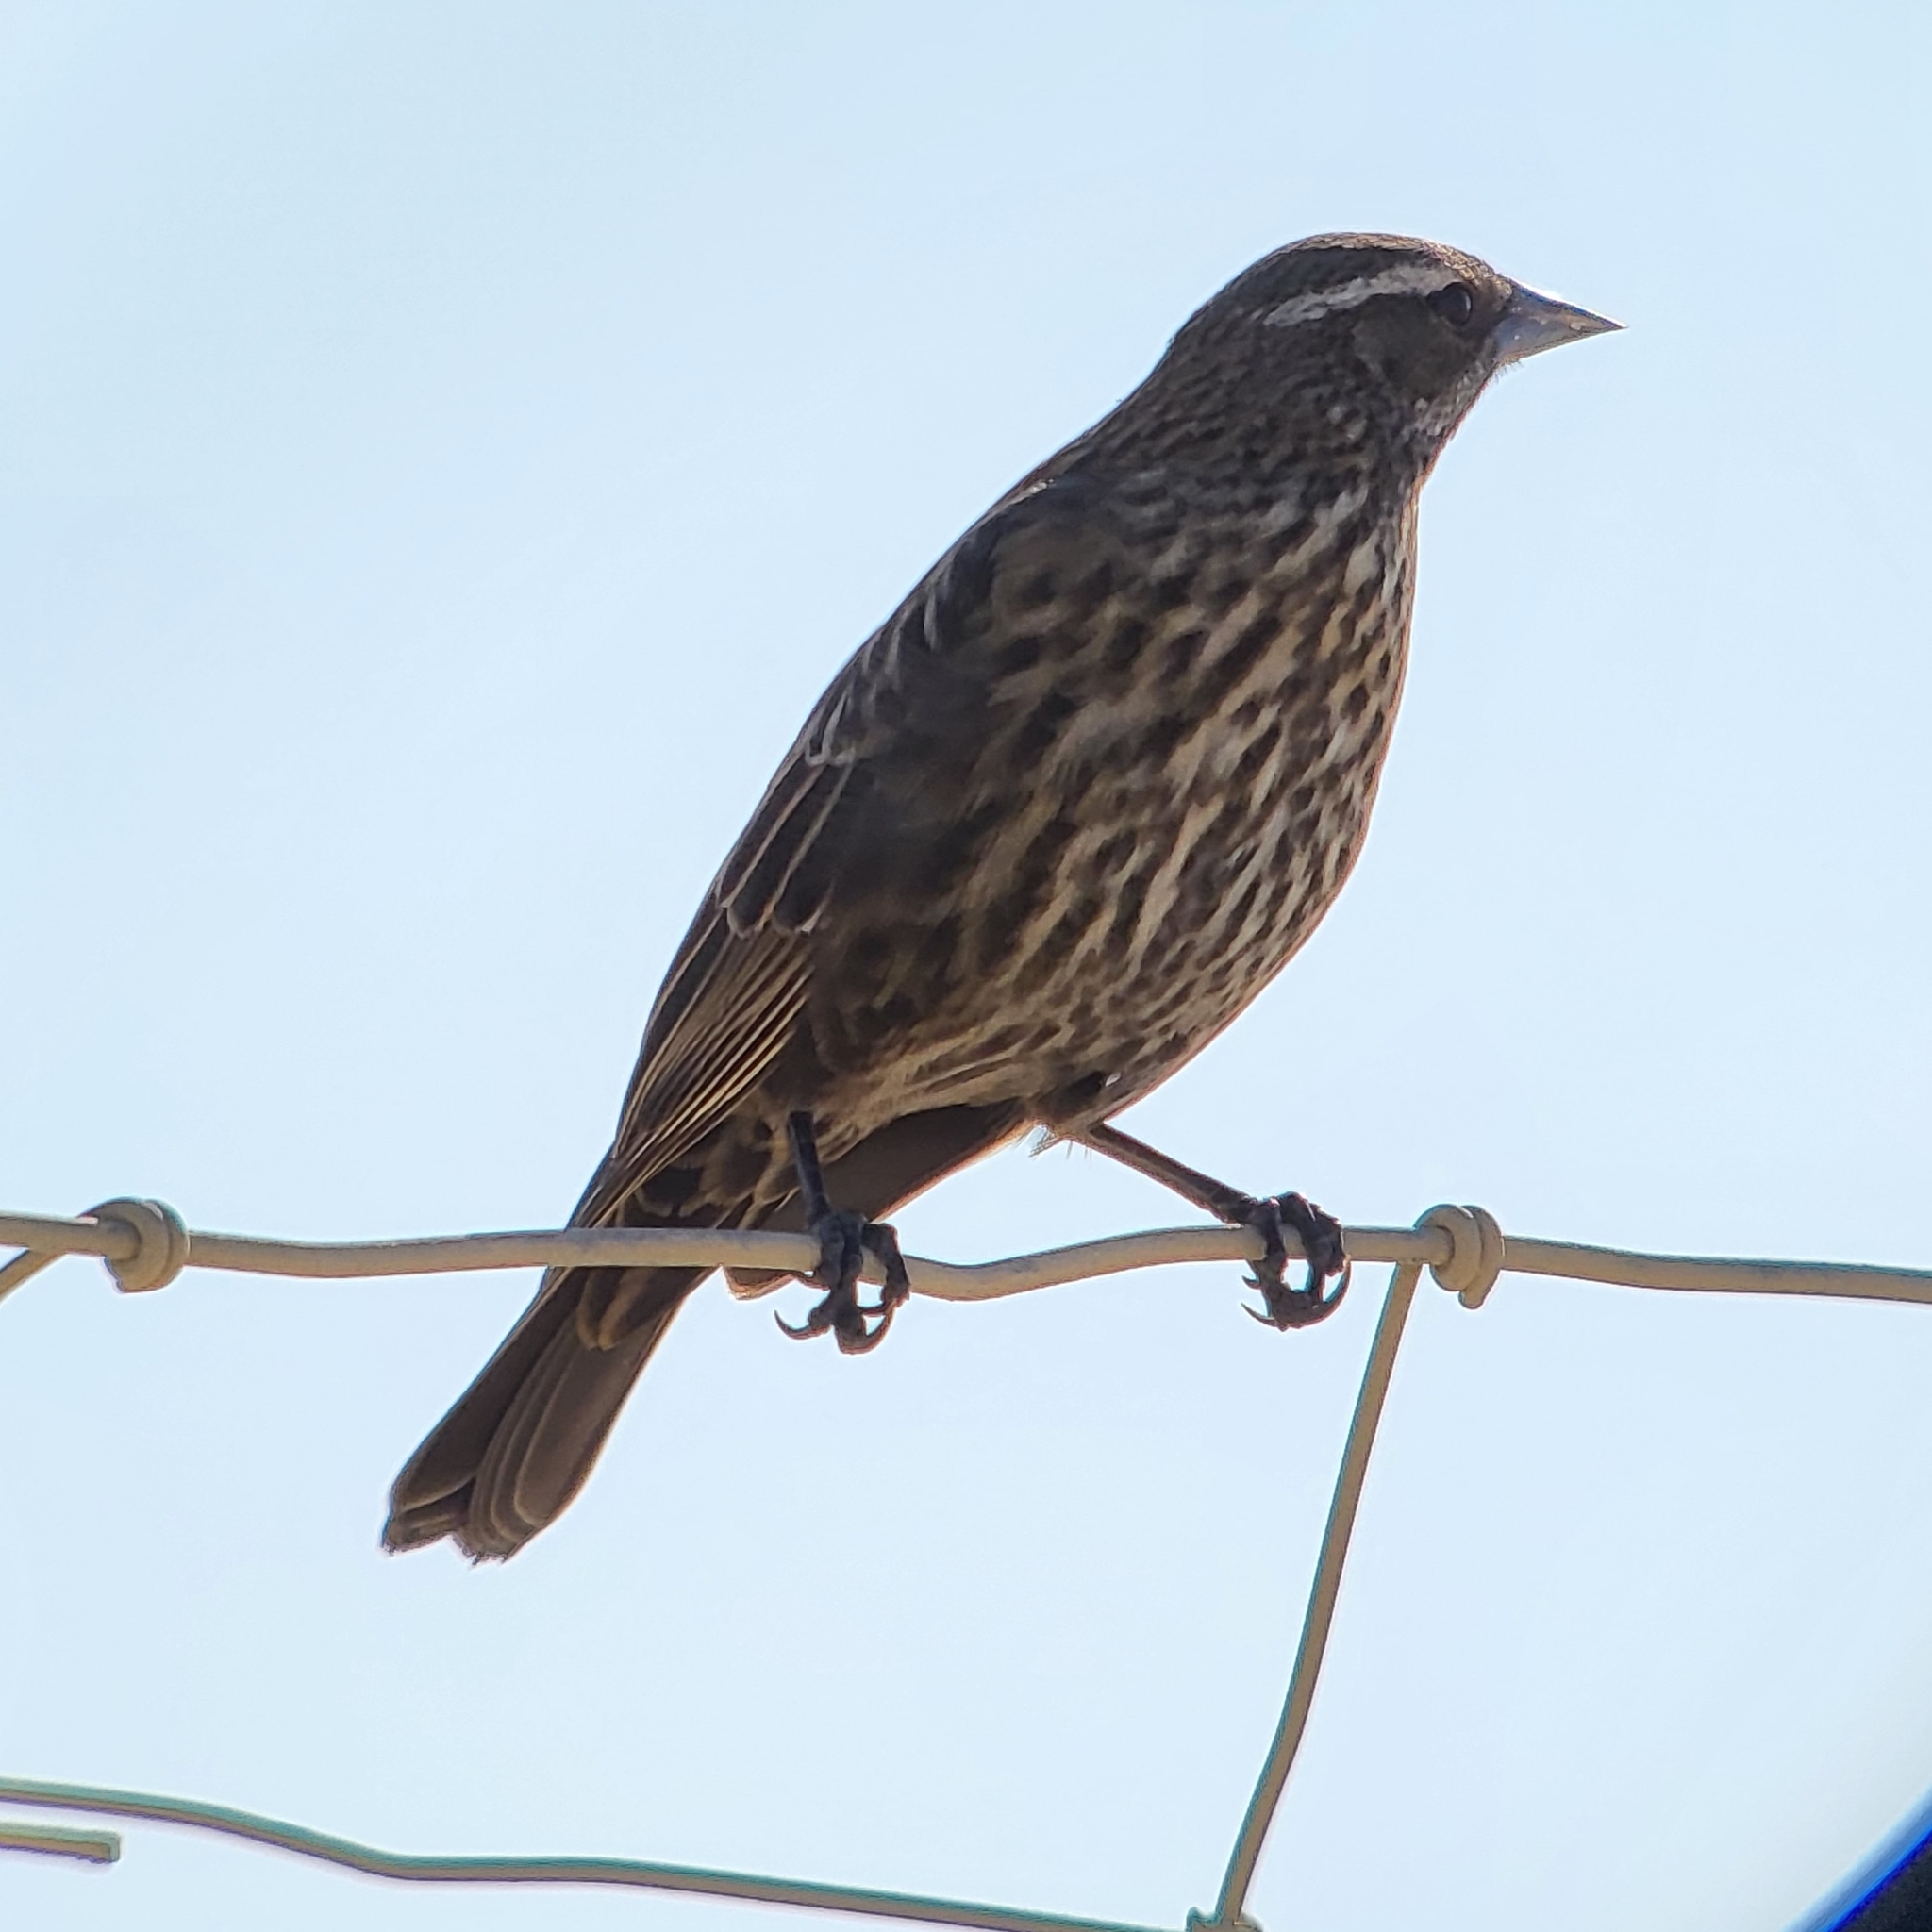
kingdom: Animalia
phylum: Chordata
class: Aves
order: Passeriformes
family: Icteridae
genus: Agelaius
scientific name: Agelaius phoeniceus
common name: Red-winged blackbird
